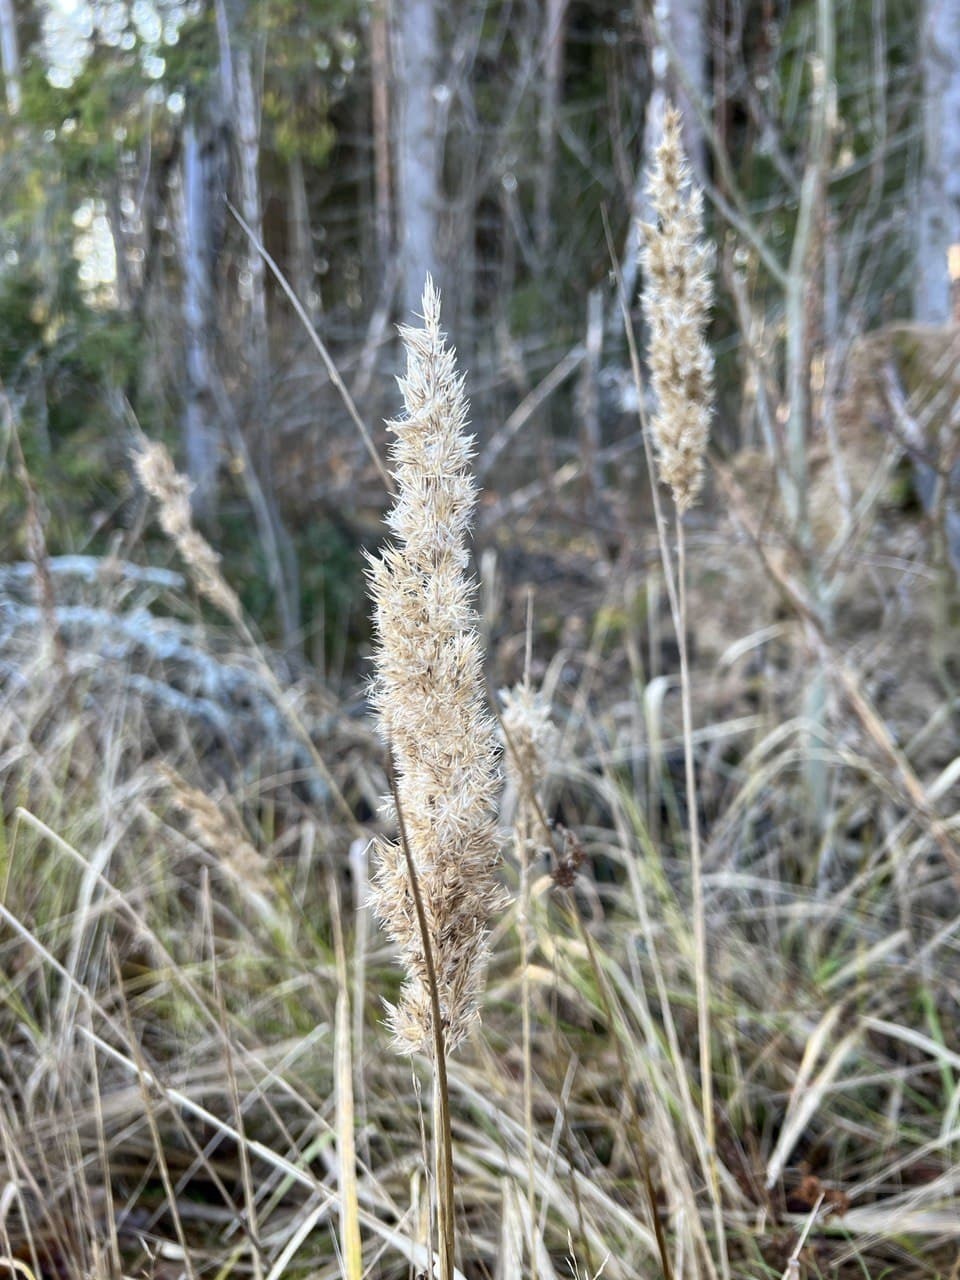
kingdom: Plantae
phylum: Tracheophyta
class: Liliopsida
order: Poales
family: Poaceae
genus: Calamagrostis
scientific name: Calamagrostis epigejos
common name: Wood small-reed
